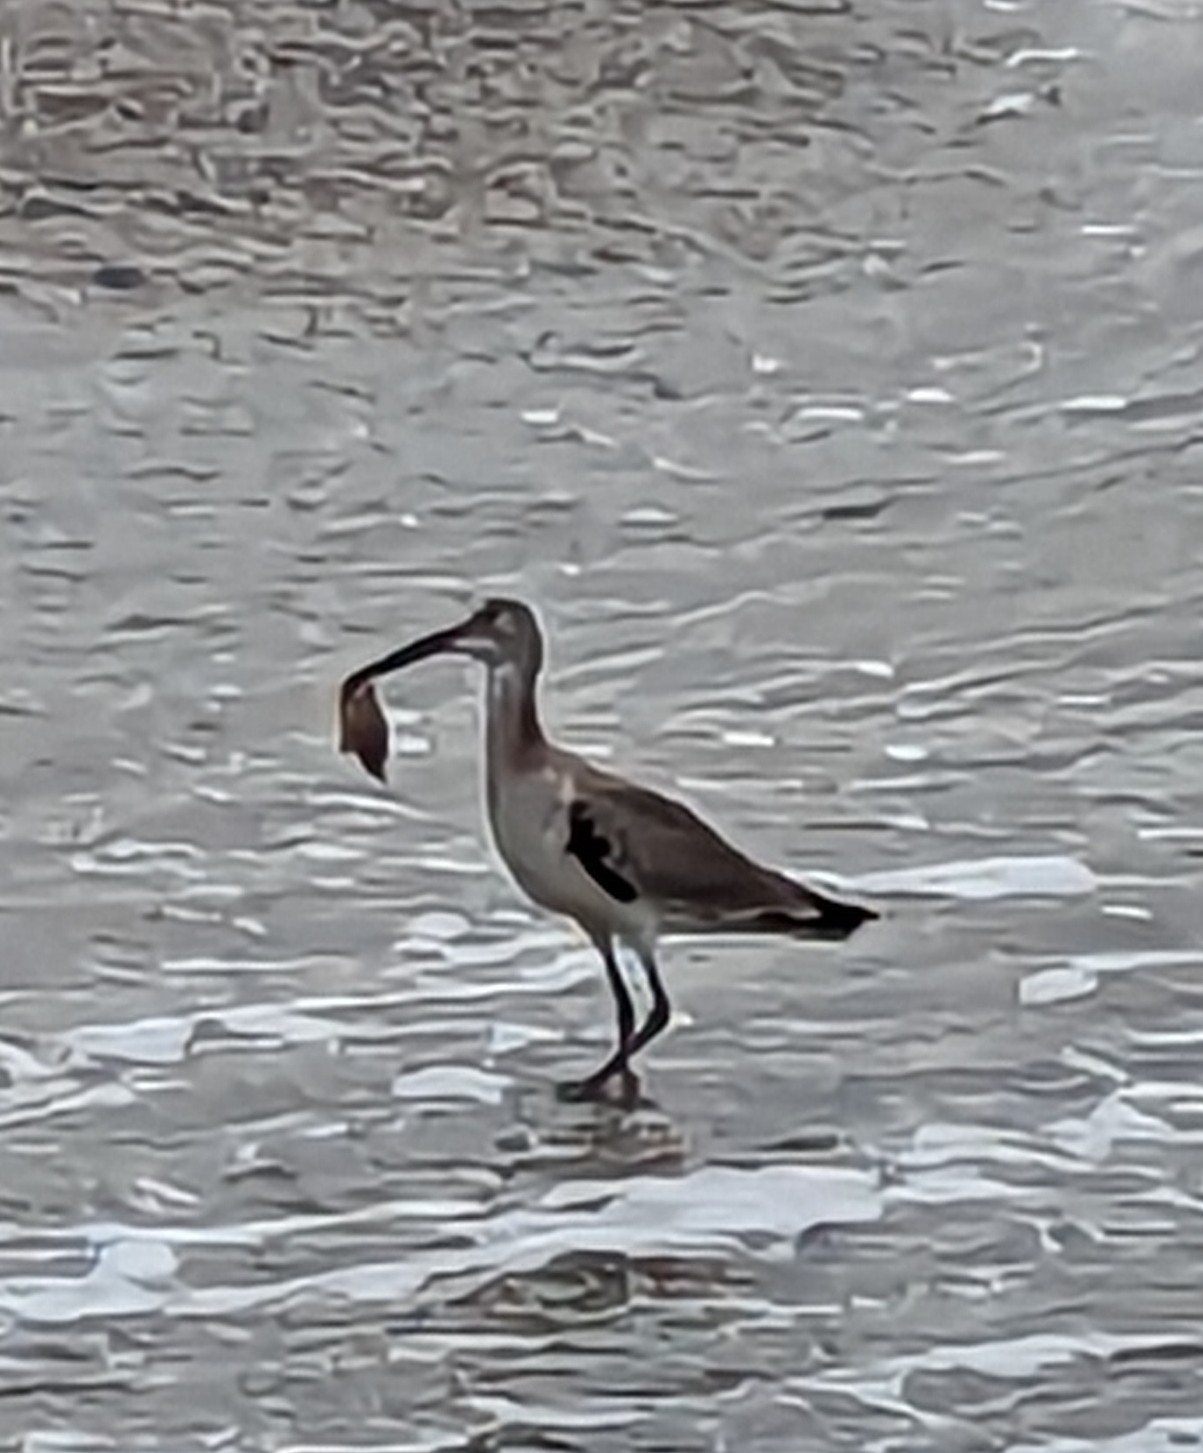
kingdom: Animalia
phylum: Chordata
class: Aves
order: Charadriiformes
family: Scolopacidae
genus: Tringa
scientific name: Tringa semipalmata
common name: Willet
